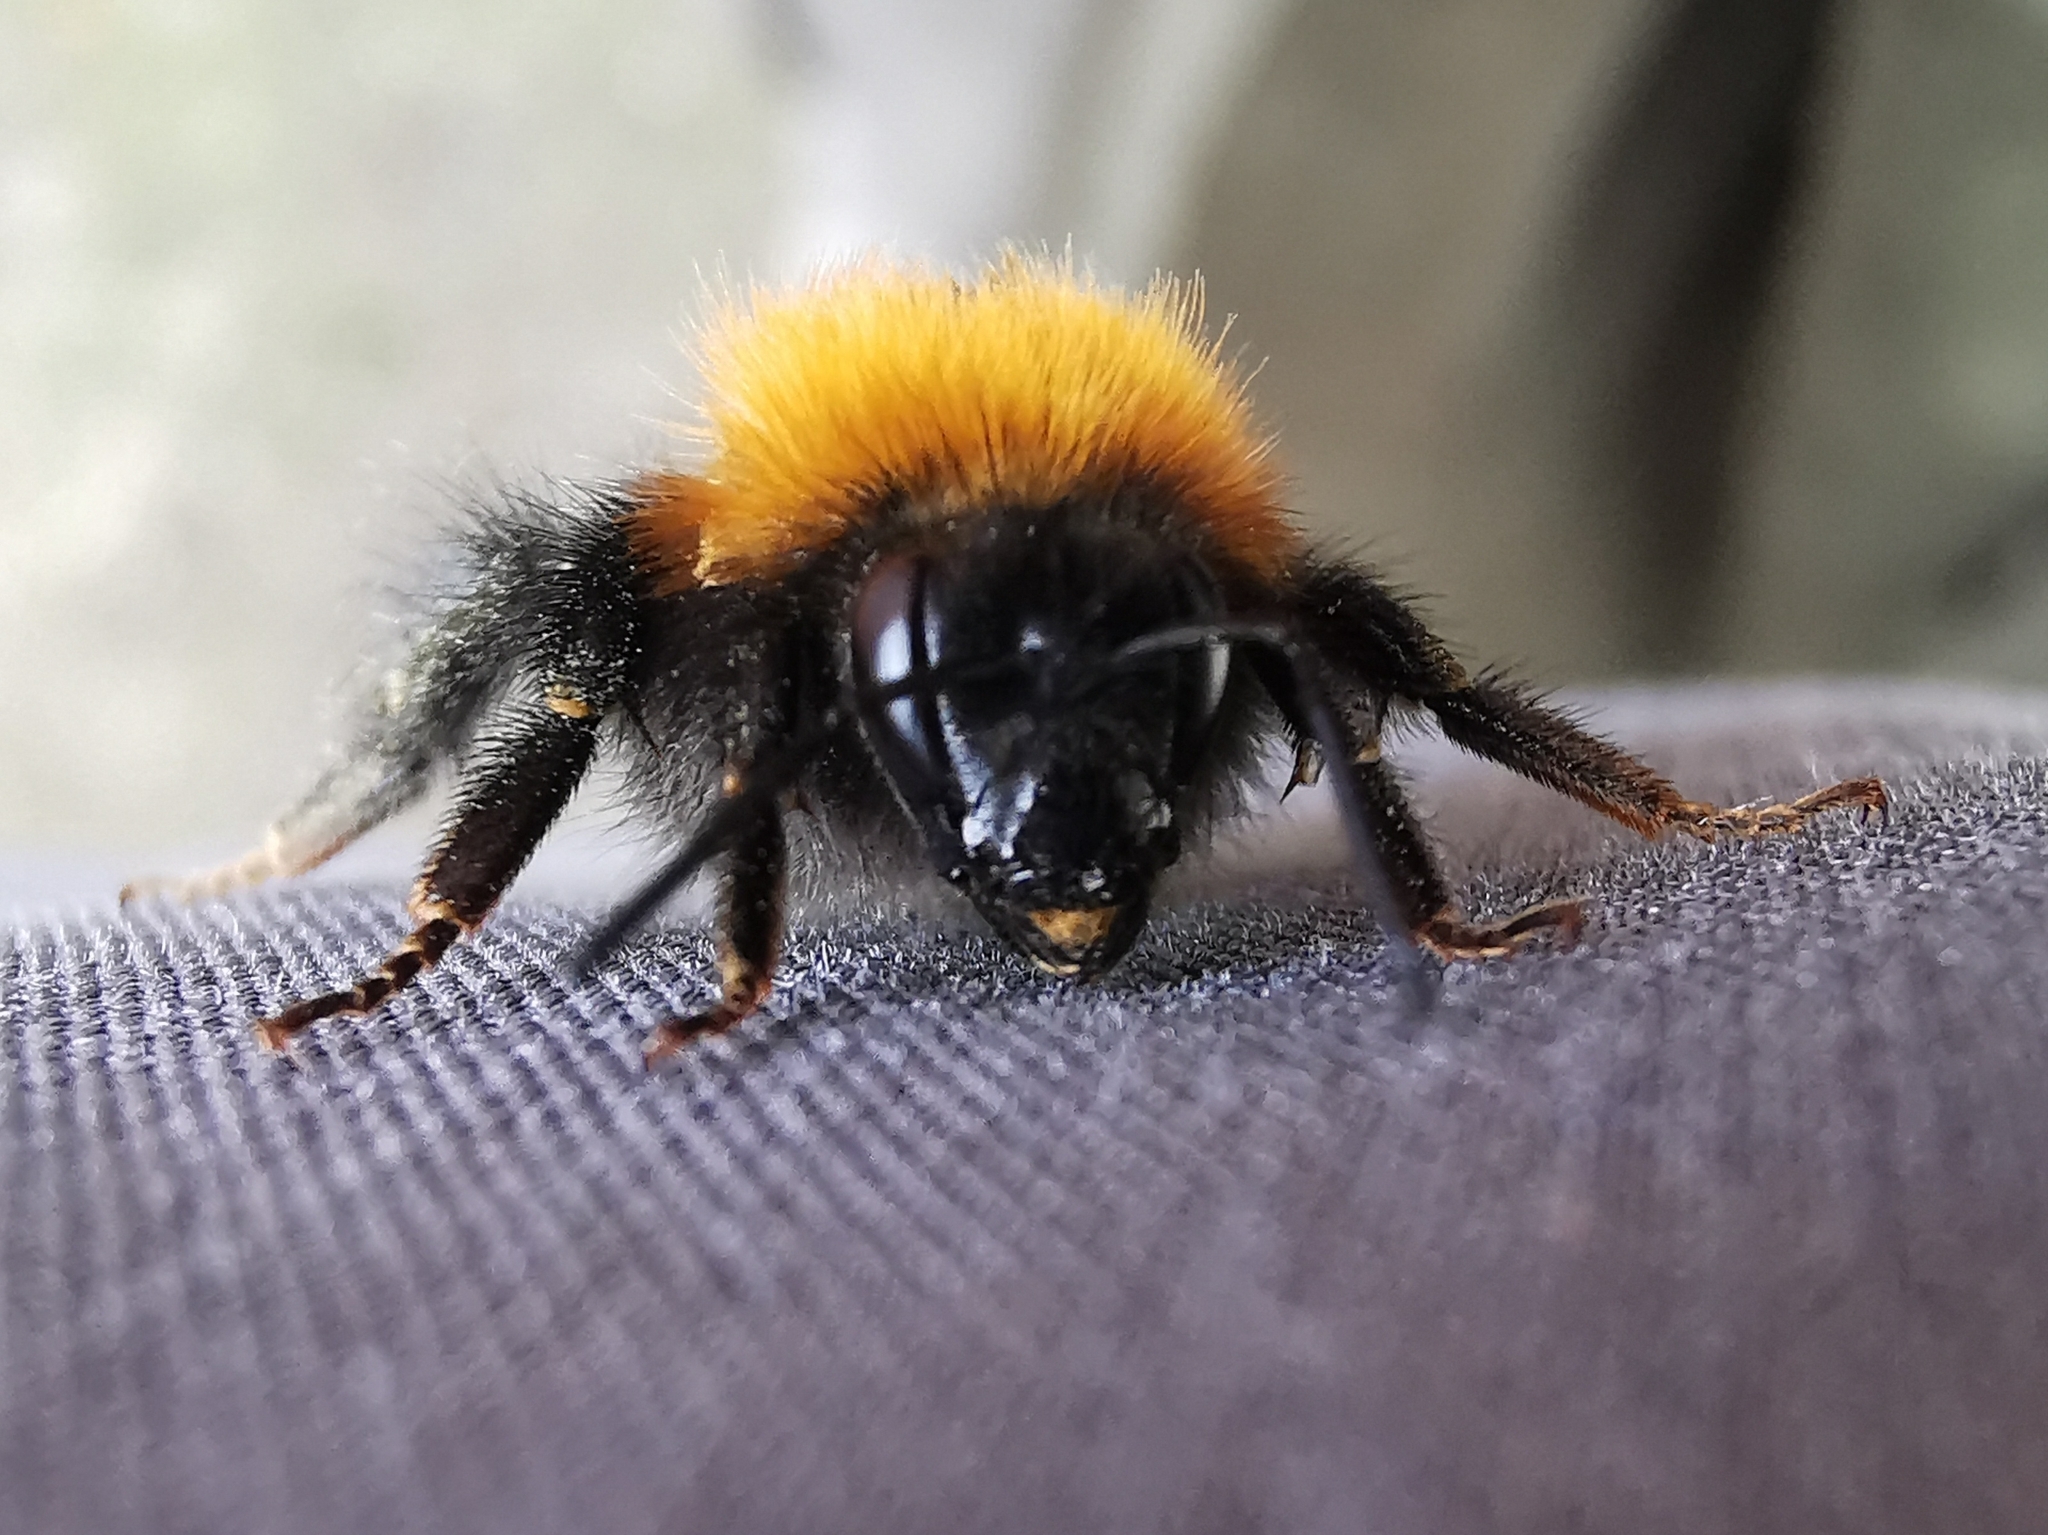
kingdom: Animalia
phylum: Arthropoda
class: Insecta
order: Hymenoptera
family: Apidae
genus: Bombus
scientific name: Bombus
